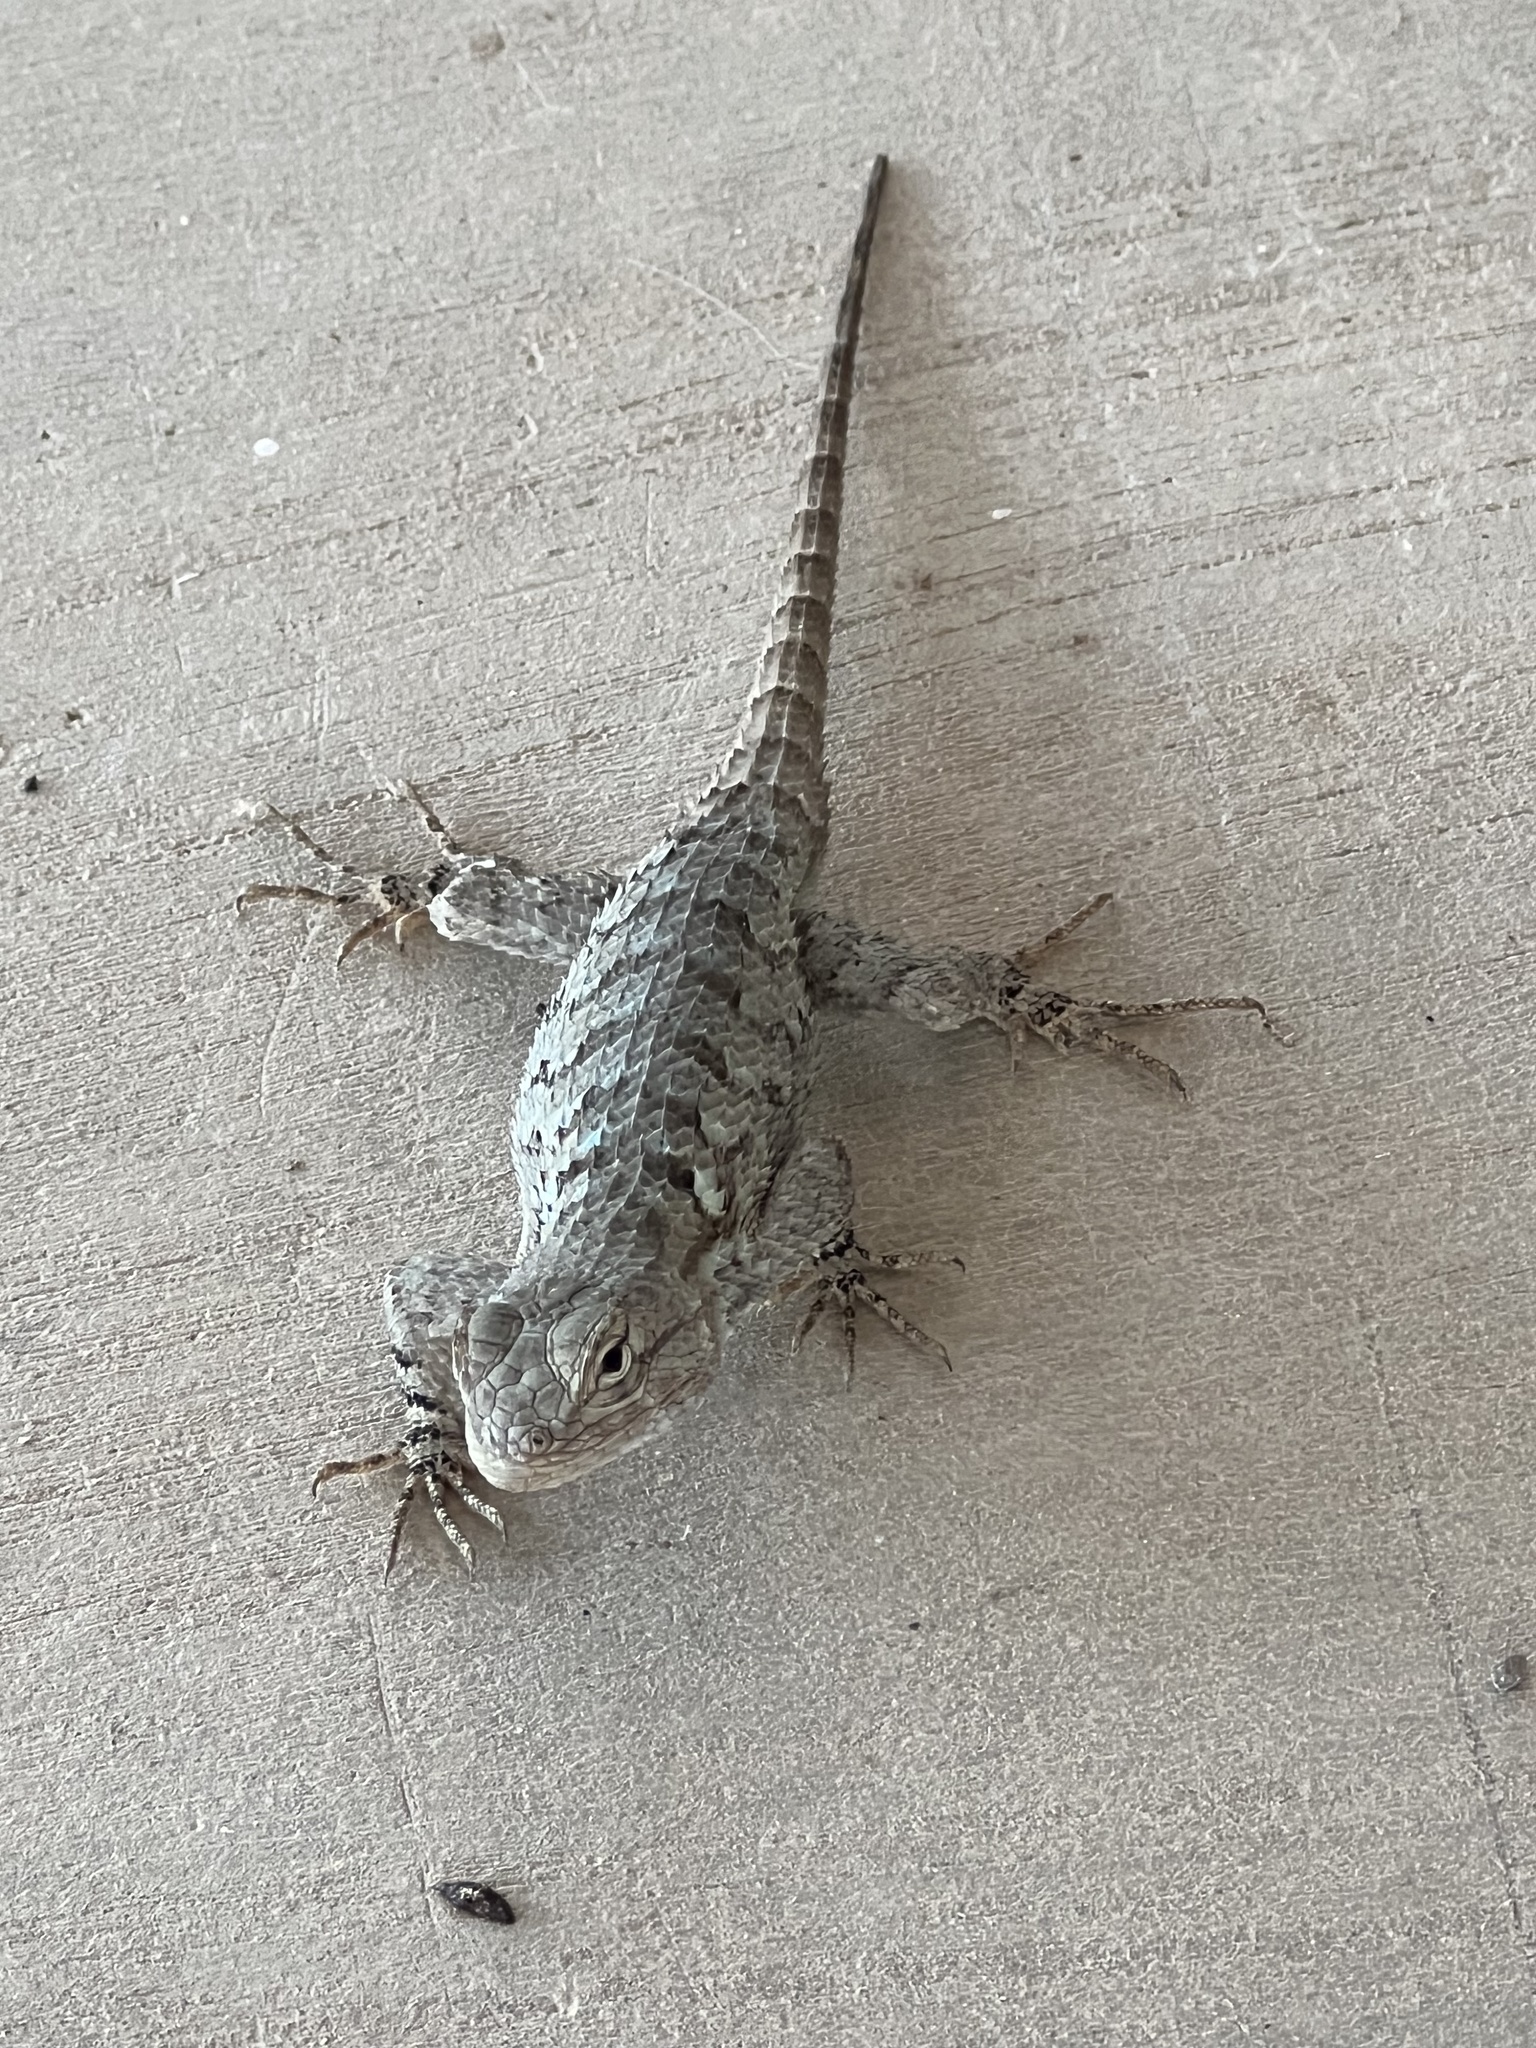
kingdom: Animalia
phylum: Chordata
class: Squamata
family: Phrynosomatidae
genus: Sceloporus
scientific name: Sceloporus clarkii
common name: Clark's spiny lizard
